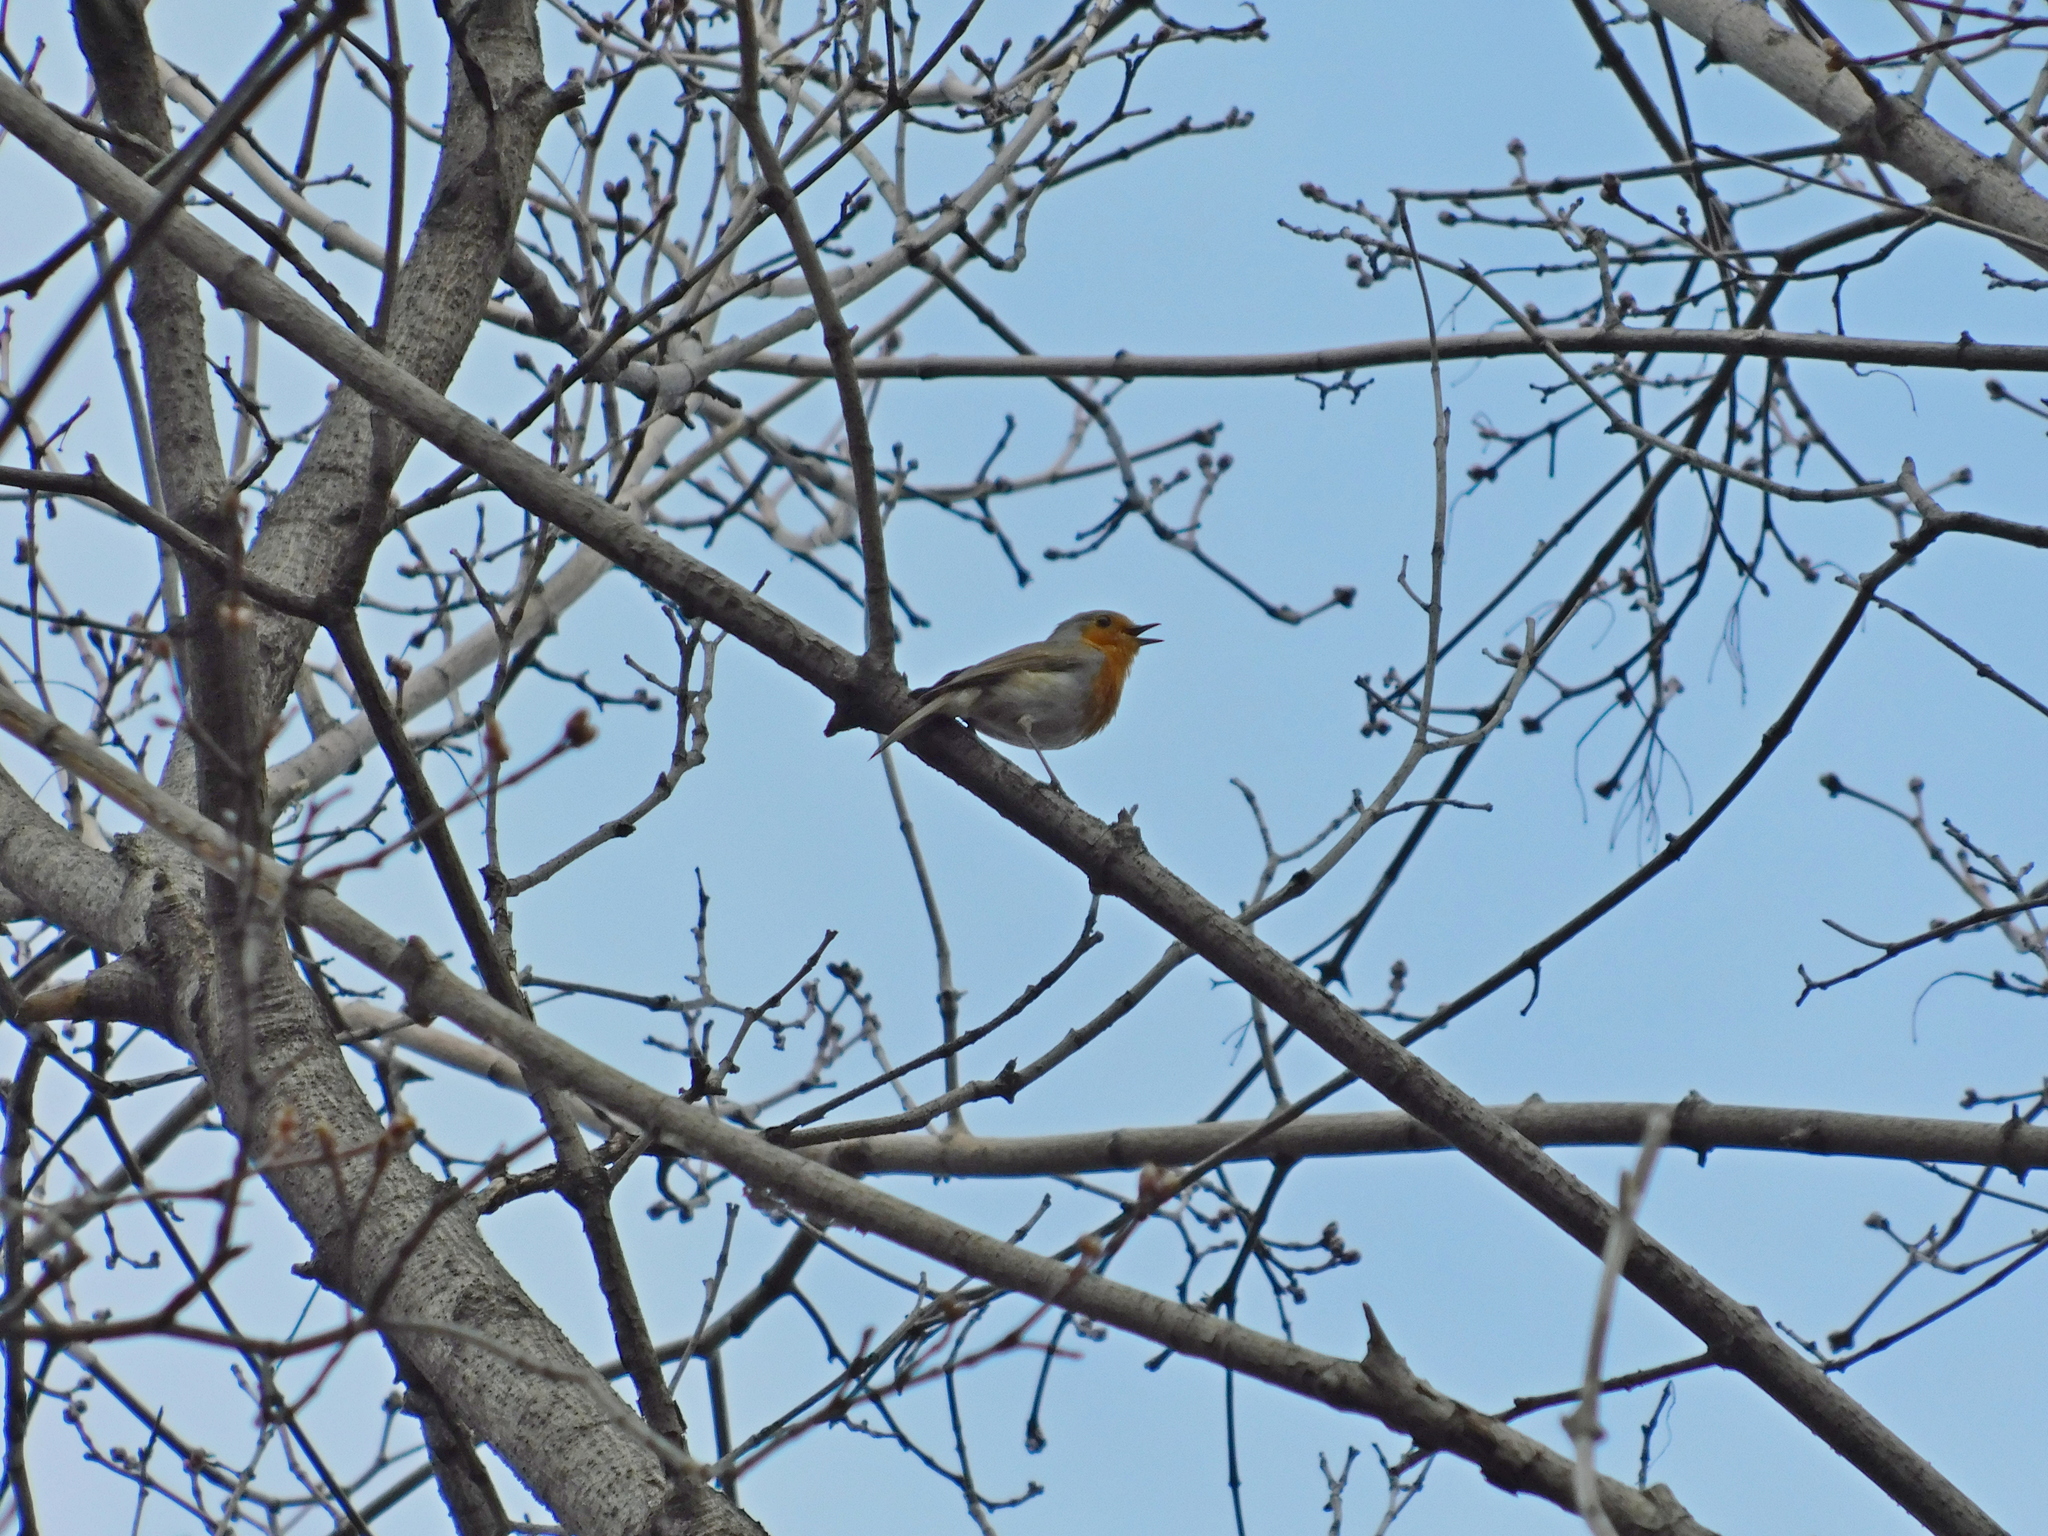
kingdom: Animalia
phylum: Chordata
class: Aves
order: Passeriformes
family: Muscicapidae
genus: Erithacus
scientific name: Erithacus rubecula
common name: European robin
